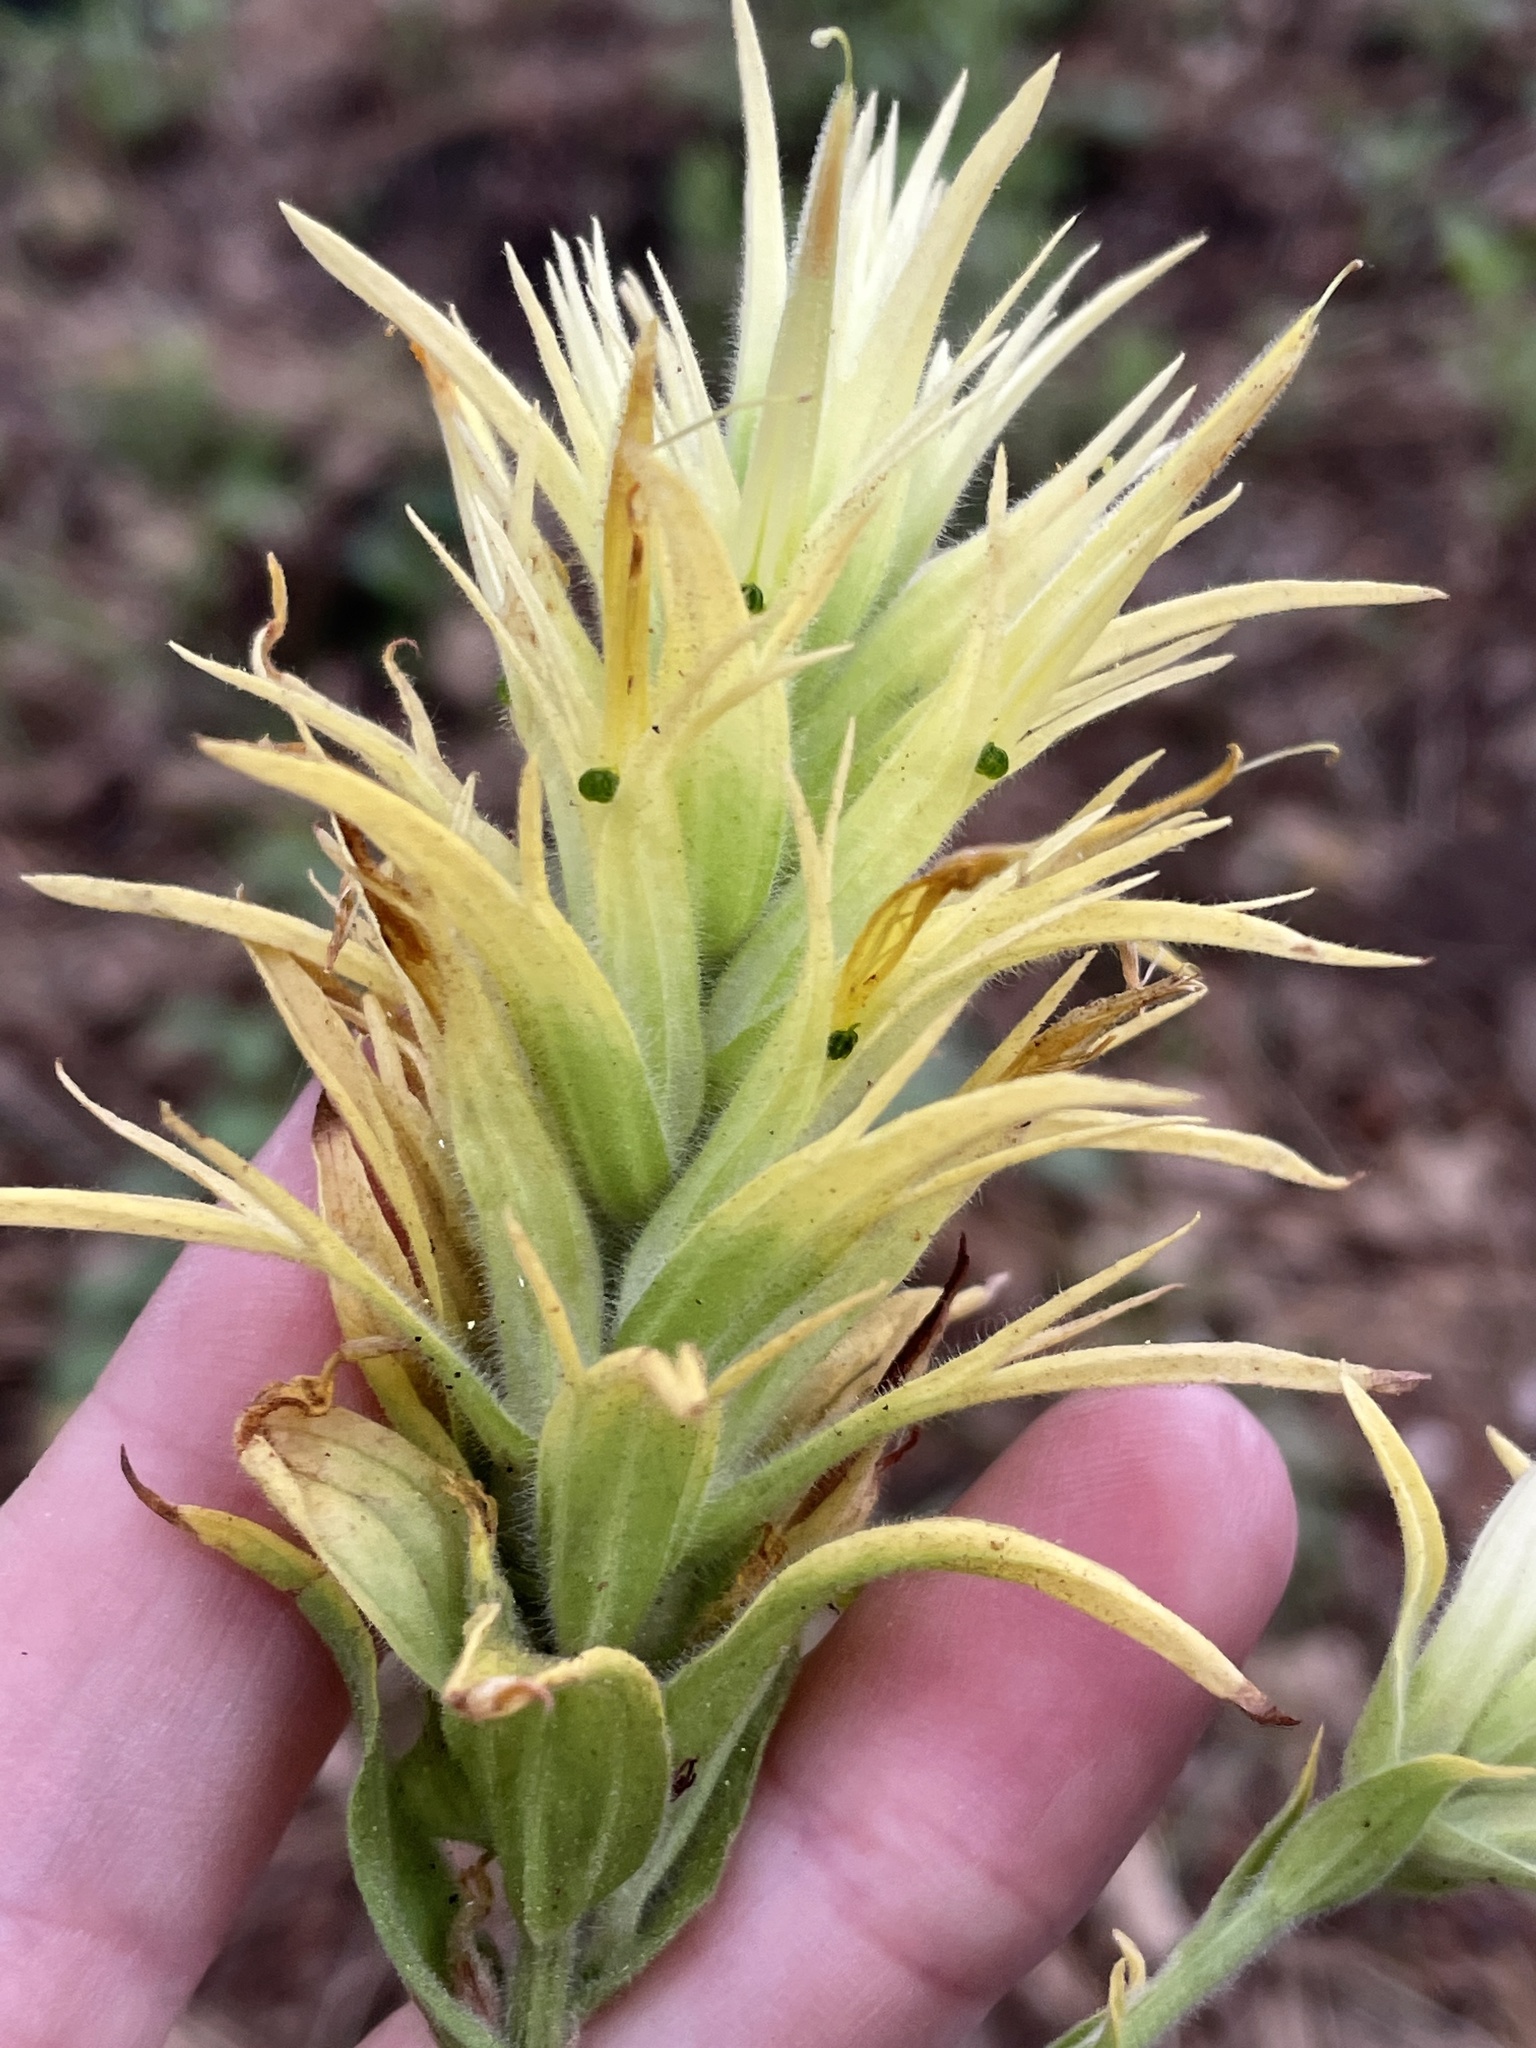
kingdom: Plantae
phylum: Tracheophyta
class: Magnoliopsida
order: Lamiales
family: Orobanchaceae
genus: Castilleja
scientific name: Castilleja miniata
